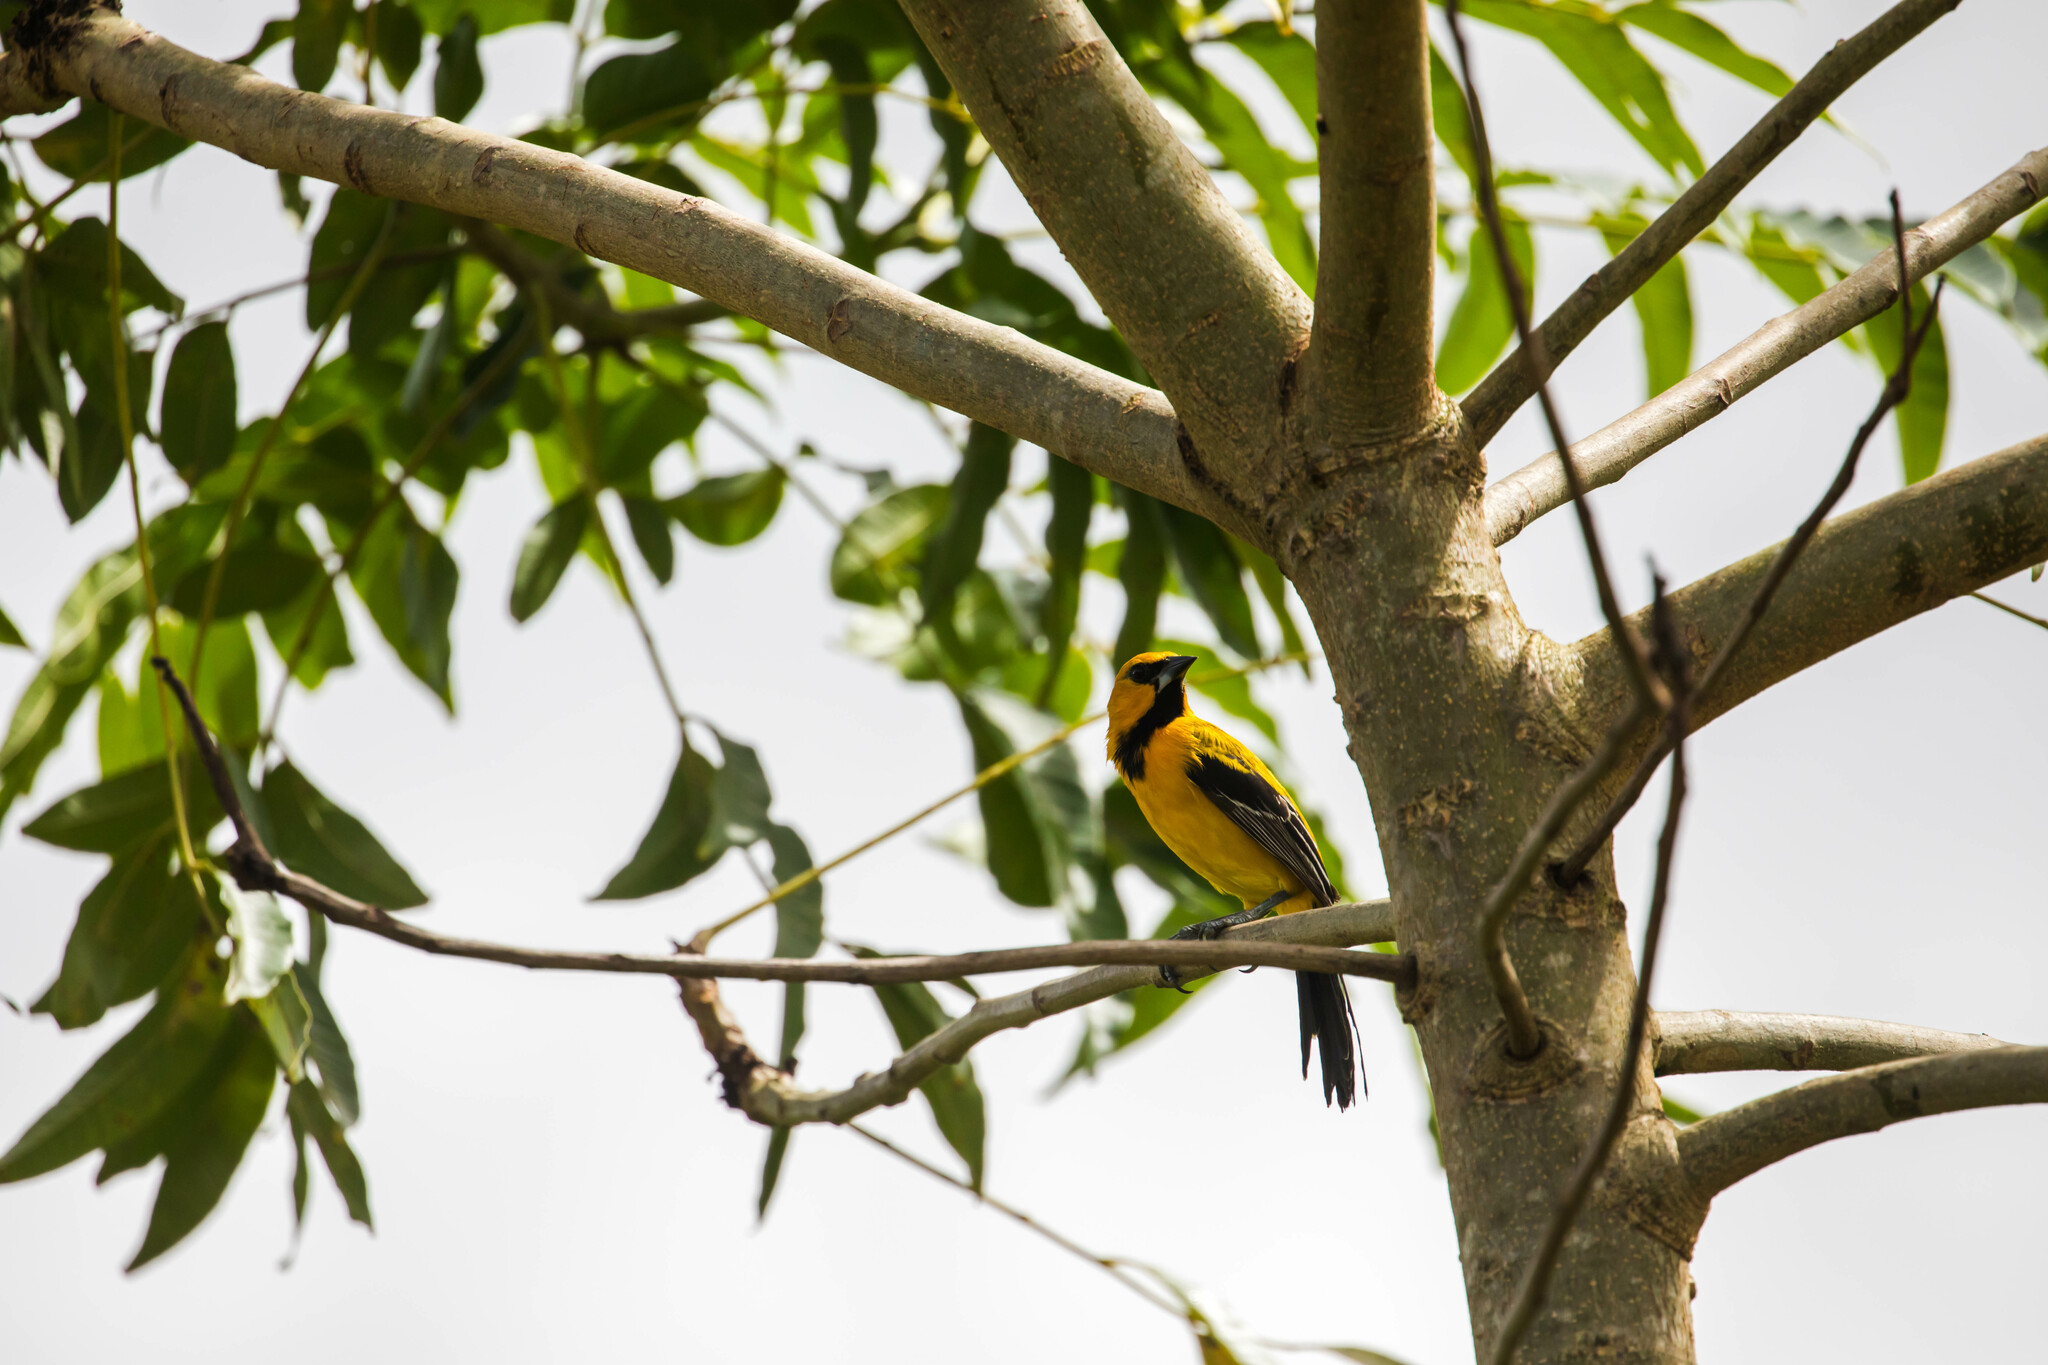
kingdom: Animalia
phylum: Chordata
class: Aves
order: Passeriformes
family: Icteridae
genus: Icterus
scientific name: Icterus nigrogularis
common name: Yellow oriole
